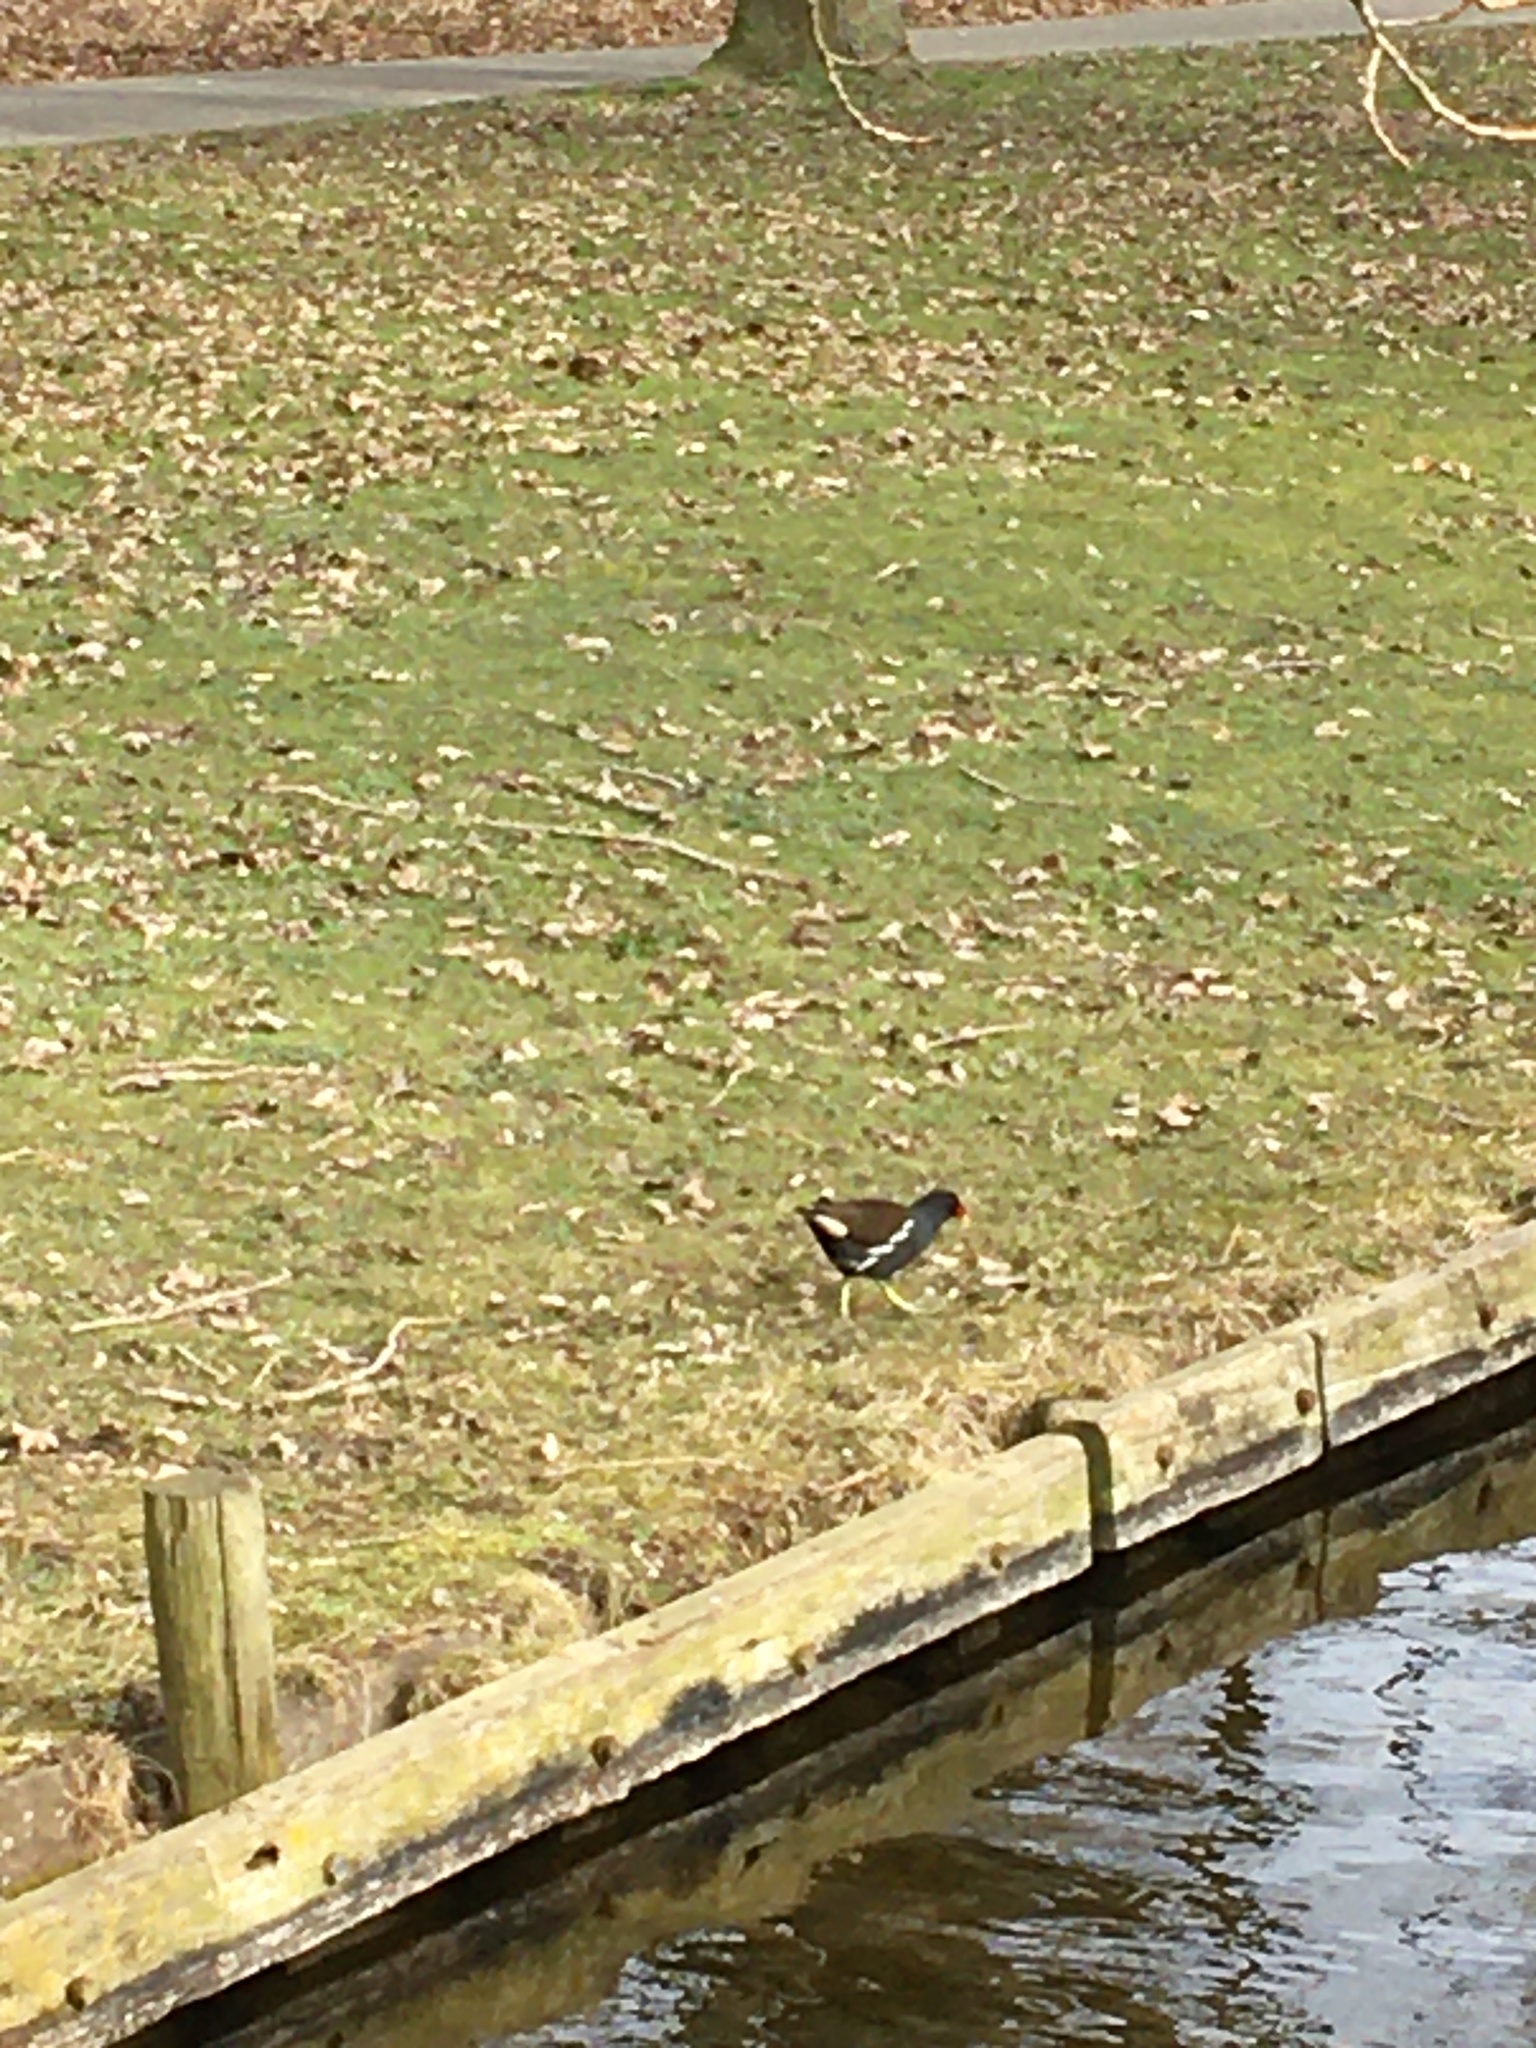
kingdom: Animalia
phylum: Chordata
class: Aves
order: Gruiformes
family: Rallidae
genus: Gallinula
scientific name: Gallinula chloropus
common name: Common moorhen
